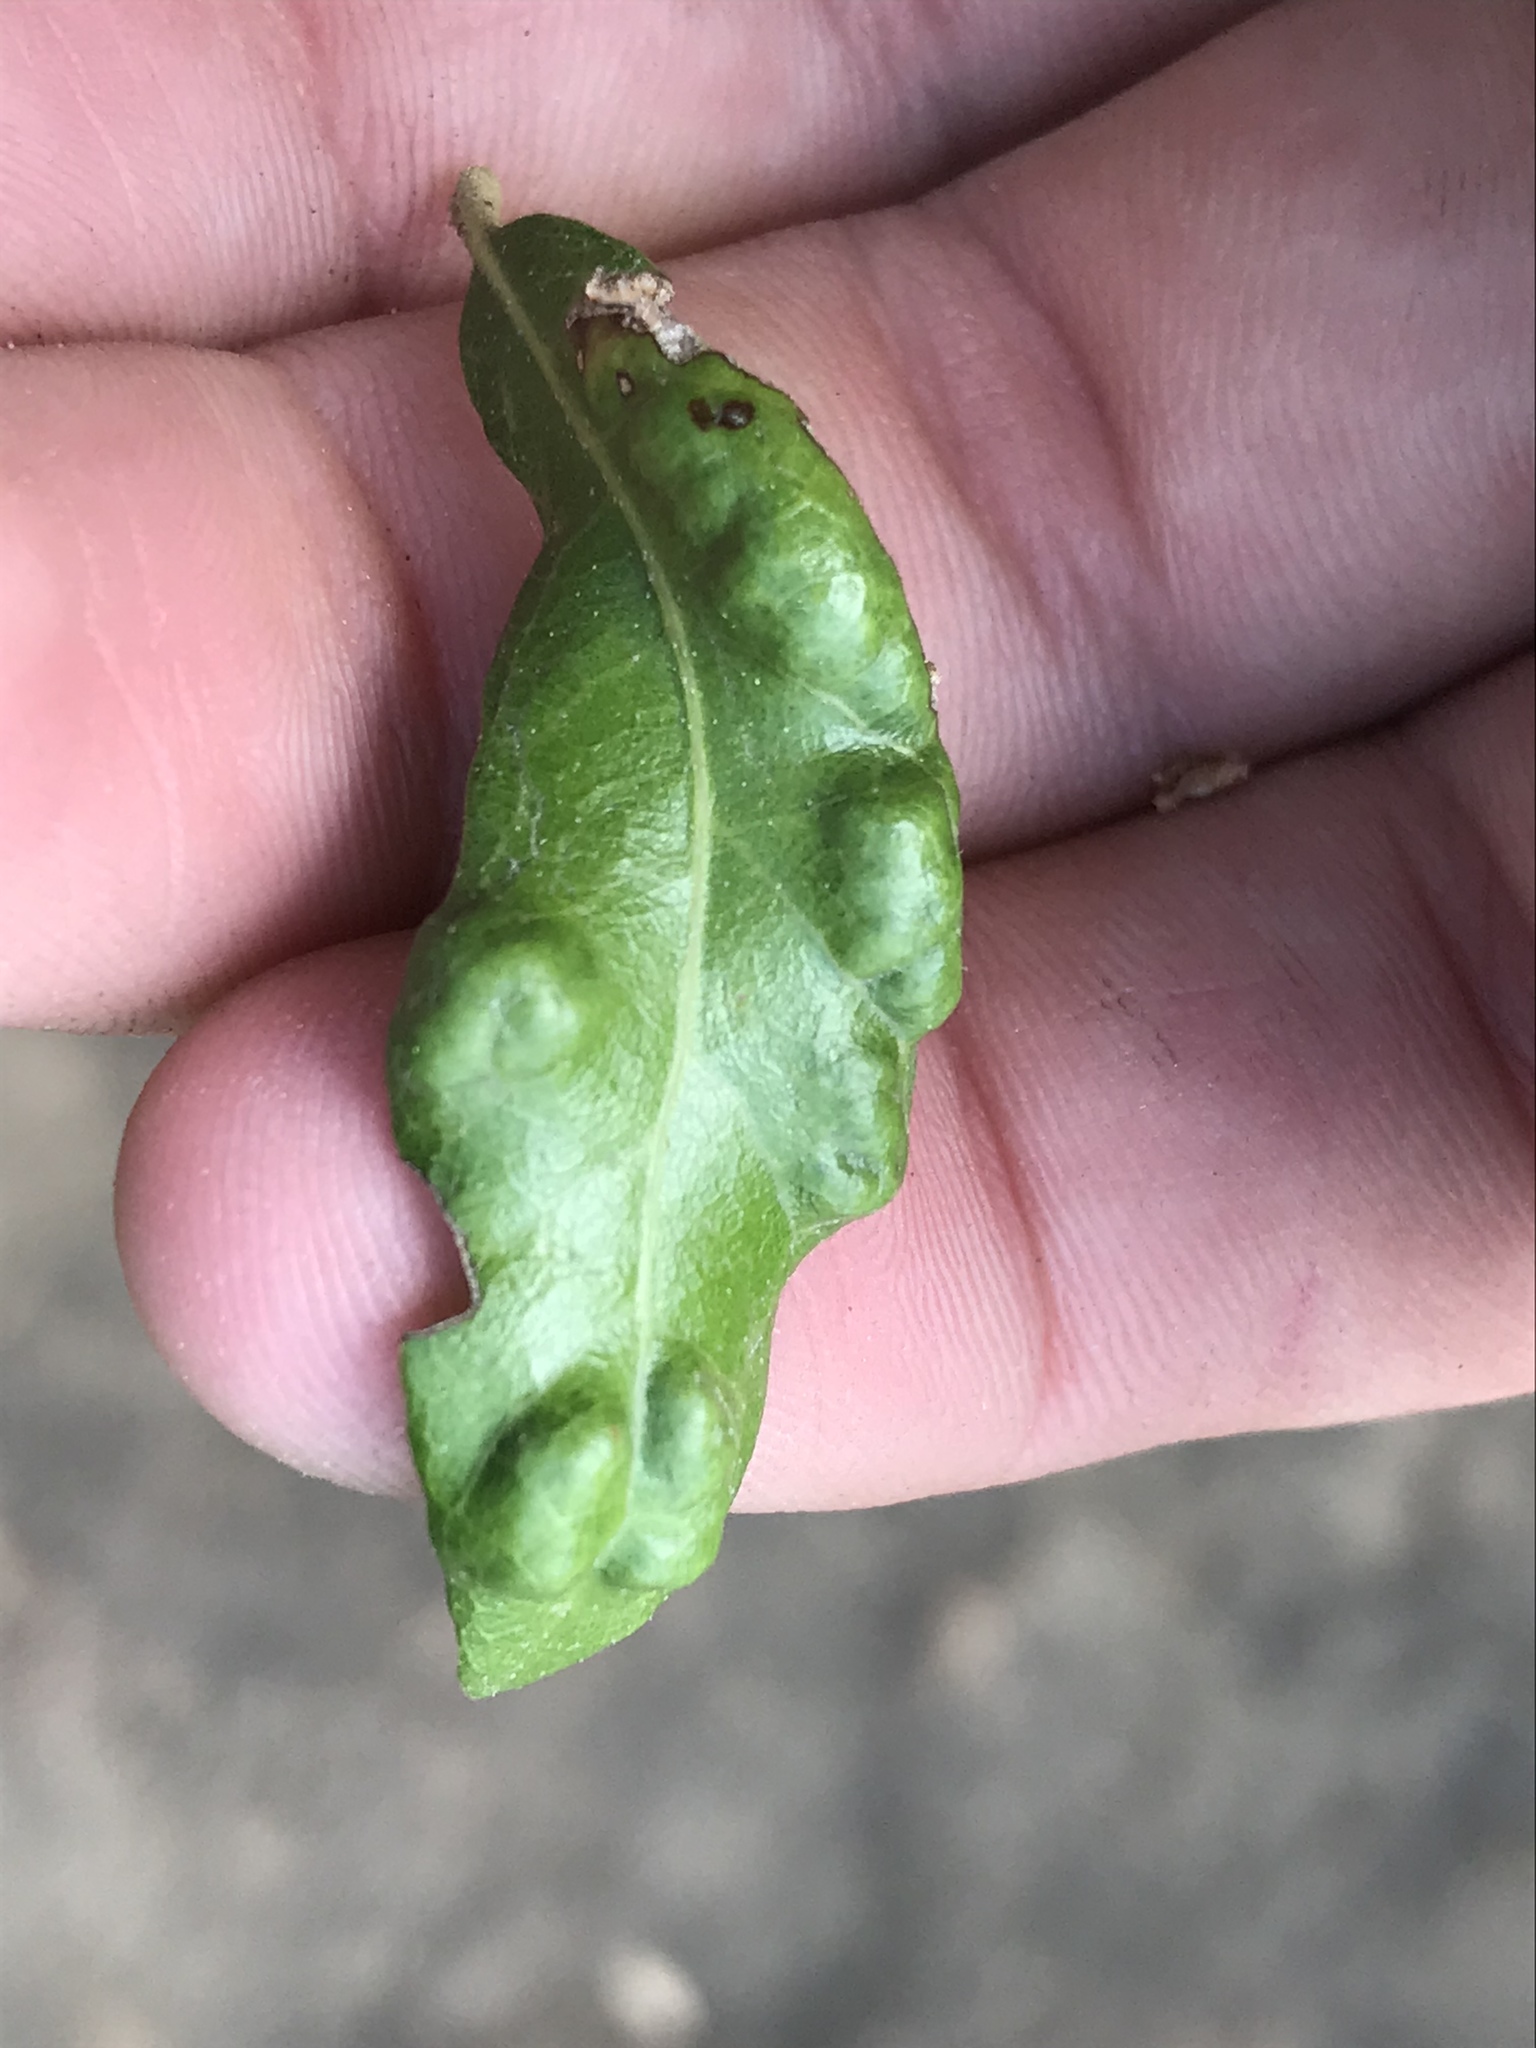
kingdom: Animalia
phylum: Arthropoda
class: Arachnida
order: Trombidiformes
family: Eriophyidae
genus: Aceria
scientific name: Aceria quercina
